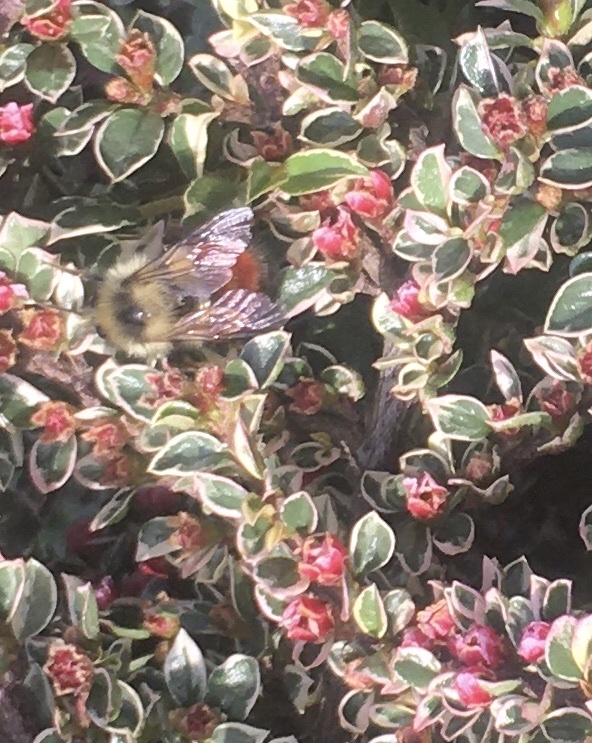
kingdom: Animalia
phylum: Arthropoda
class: Insecta
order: Hymenoptera
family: Apidae
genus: Bombus
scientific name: Bombus melanopygus
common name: Black tail bumble bee
